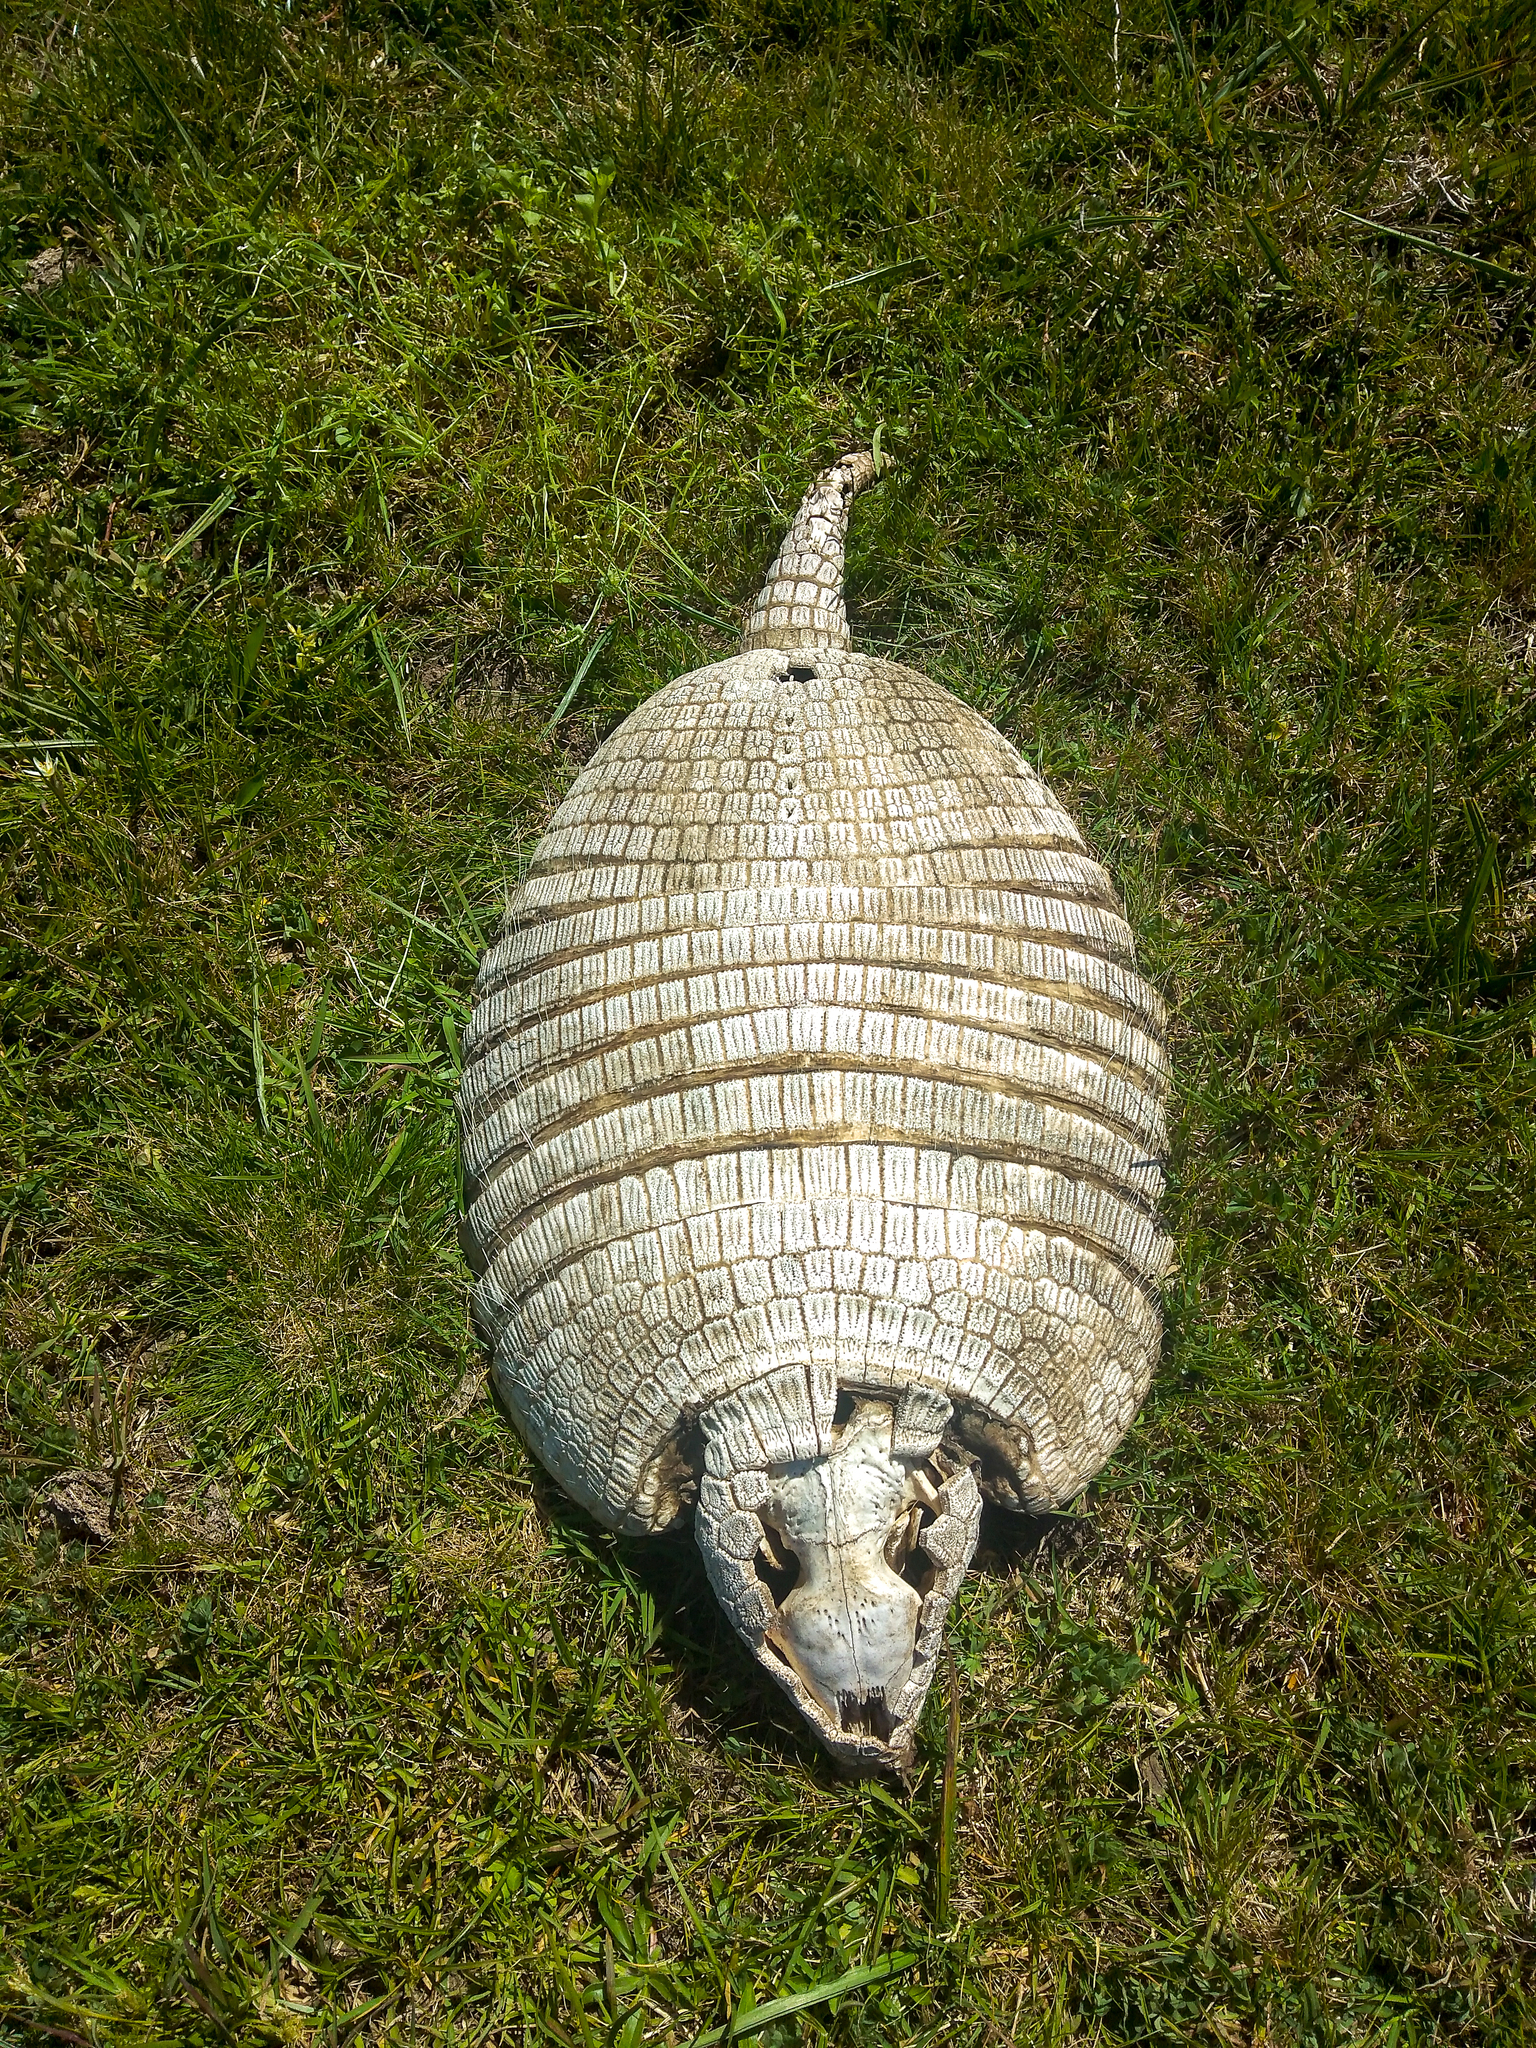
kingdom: Animalia
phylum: Chordata
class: Mammalia
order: Cingulata
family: Dasypodidae
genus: Euphractus
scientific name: Euphractus sexcinctus
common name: Six-banded armadillo
